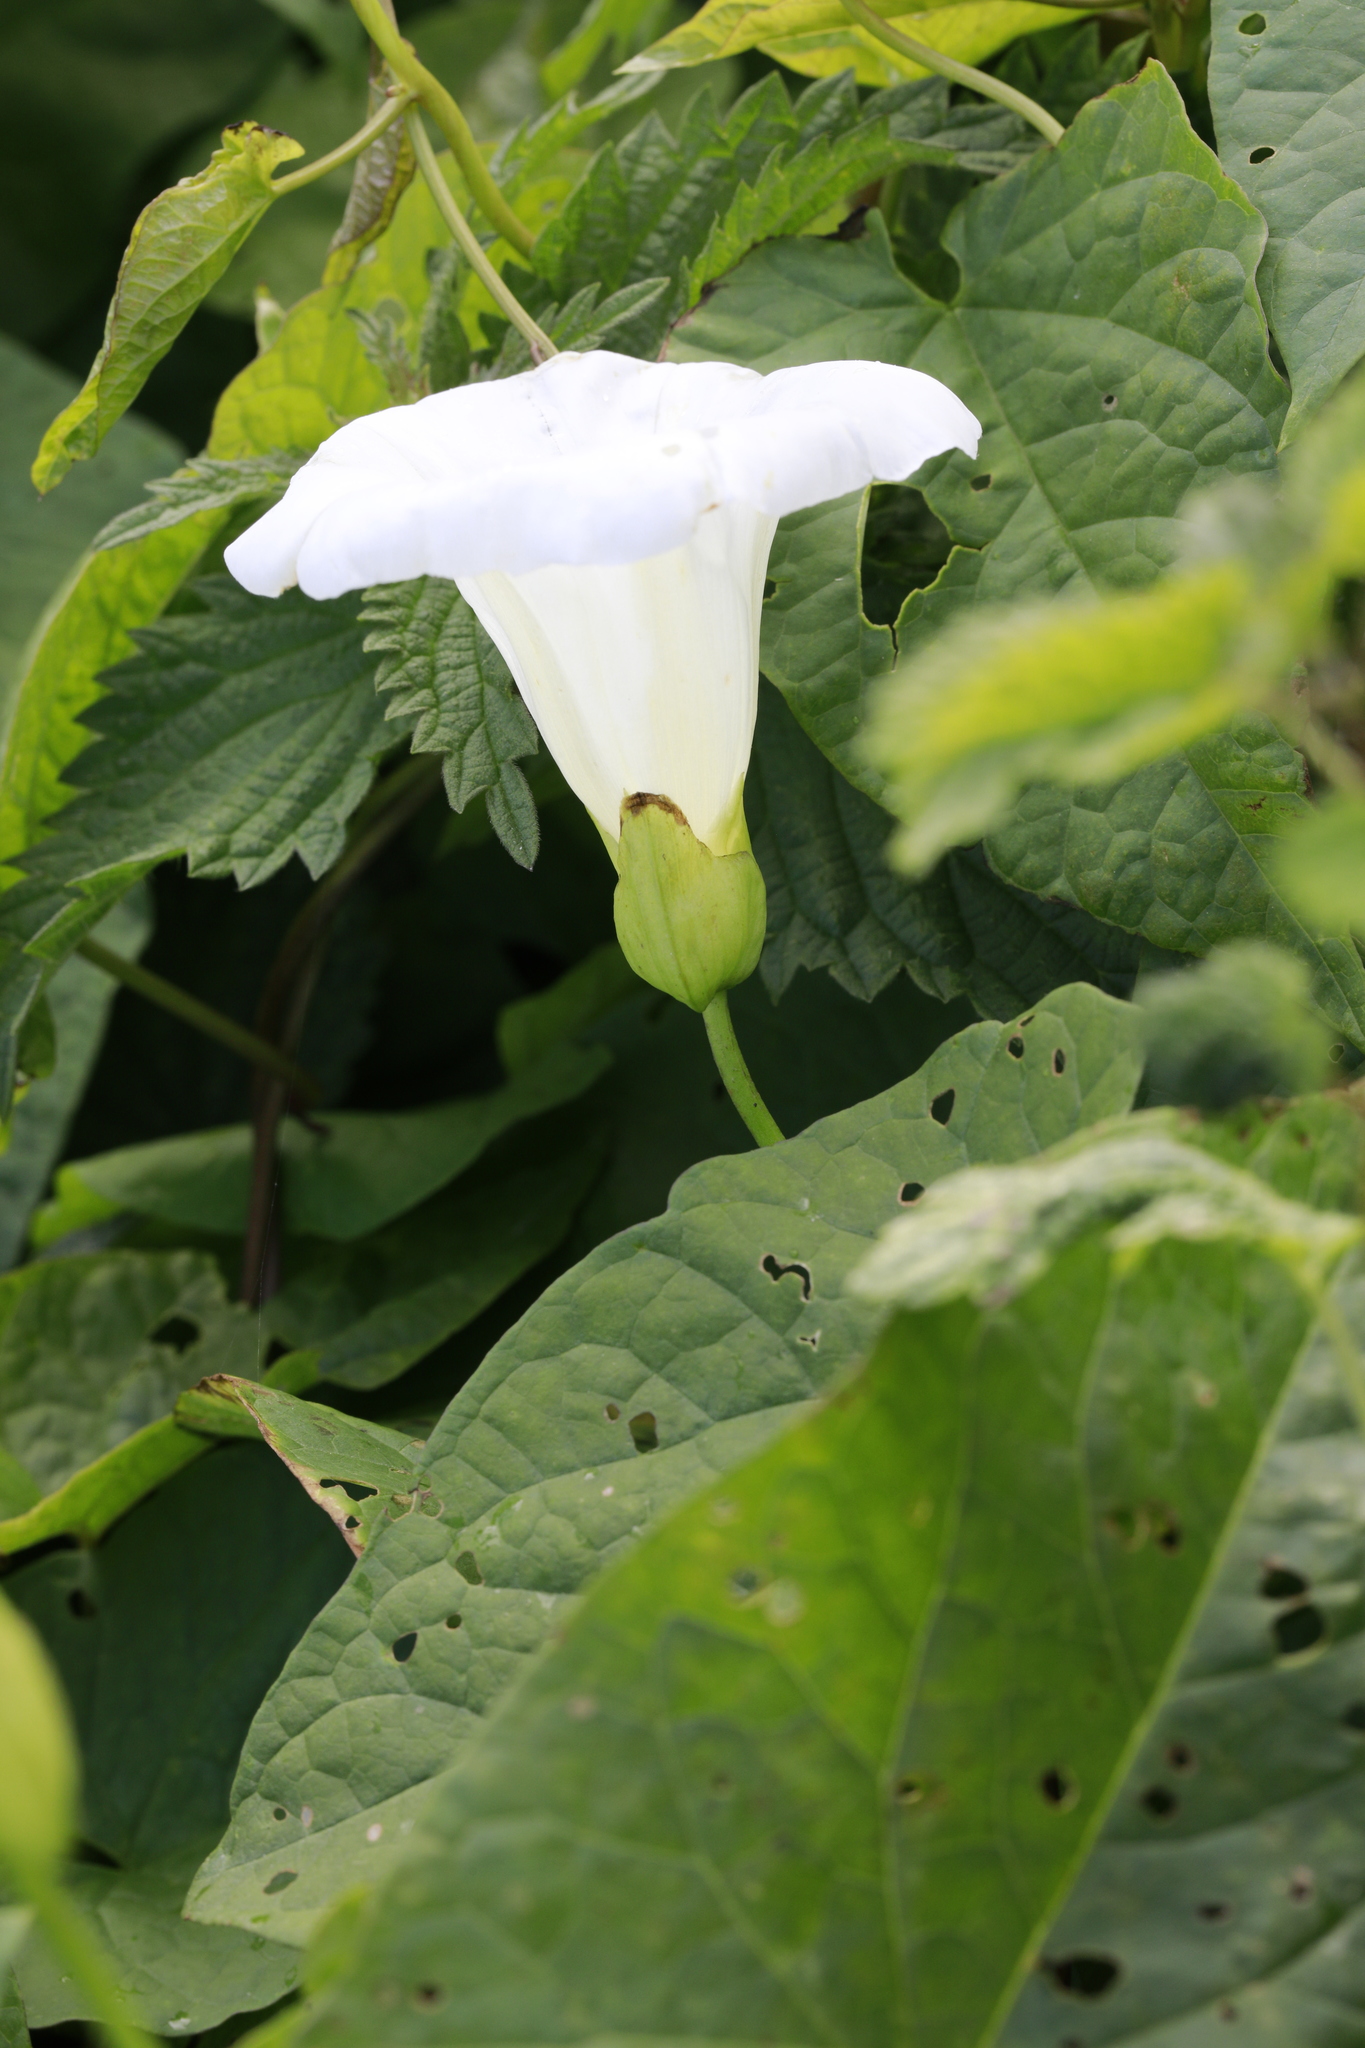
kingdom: Plantae
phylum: Tracheophyta
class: Magnoliopsida
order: Solanales
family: Convolvulaceae
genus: Calystegia
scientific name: Calystegia silvatica
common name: Large bindweed
